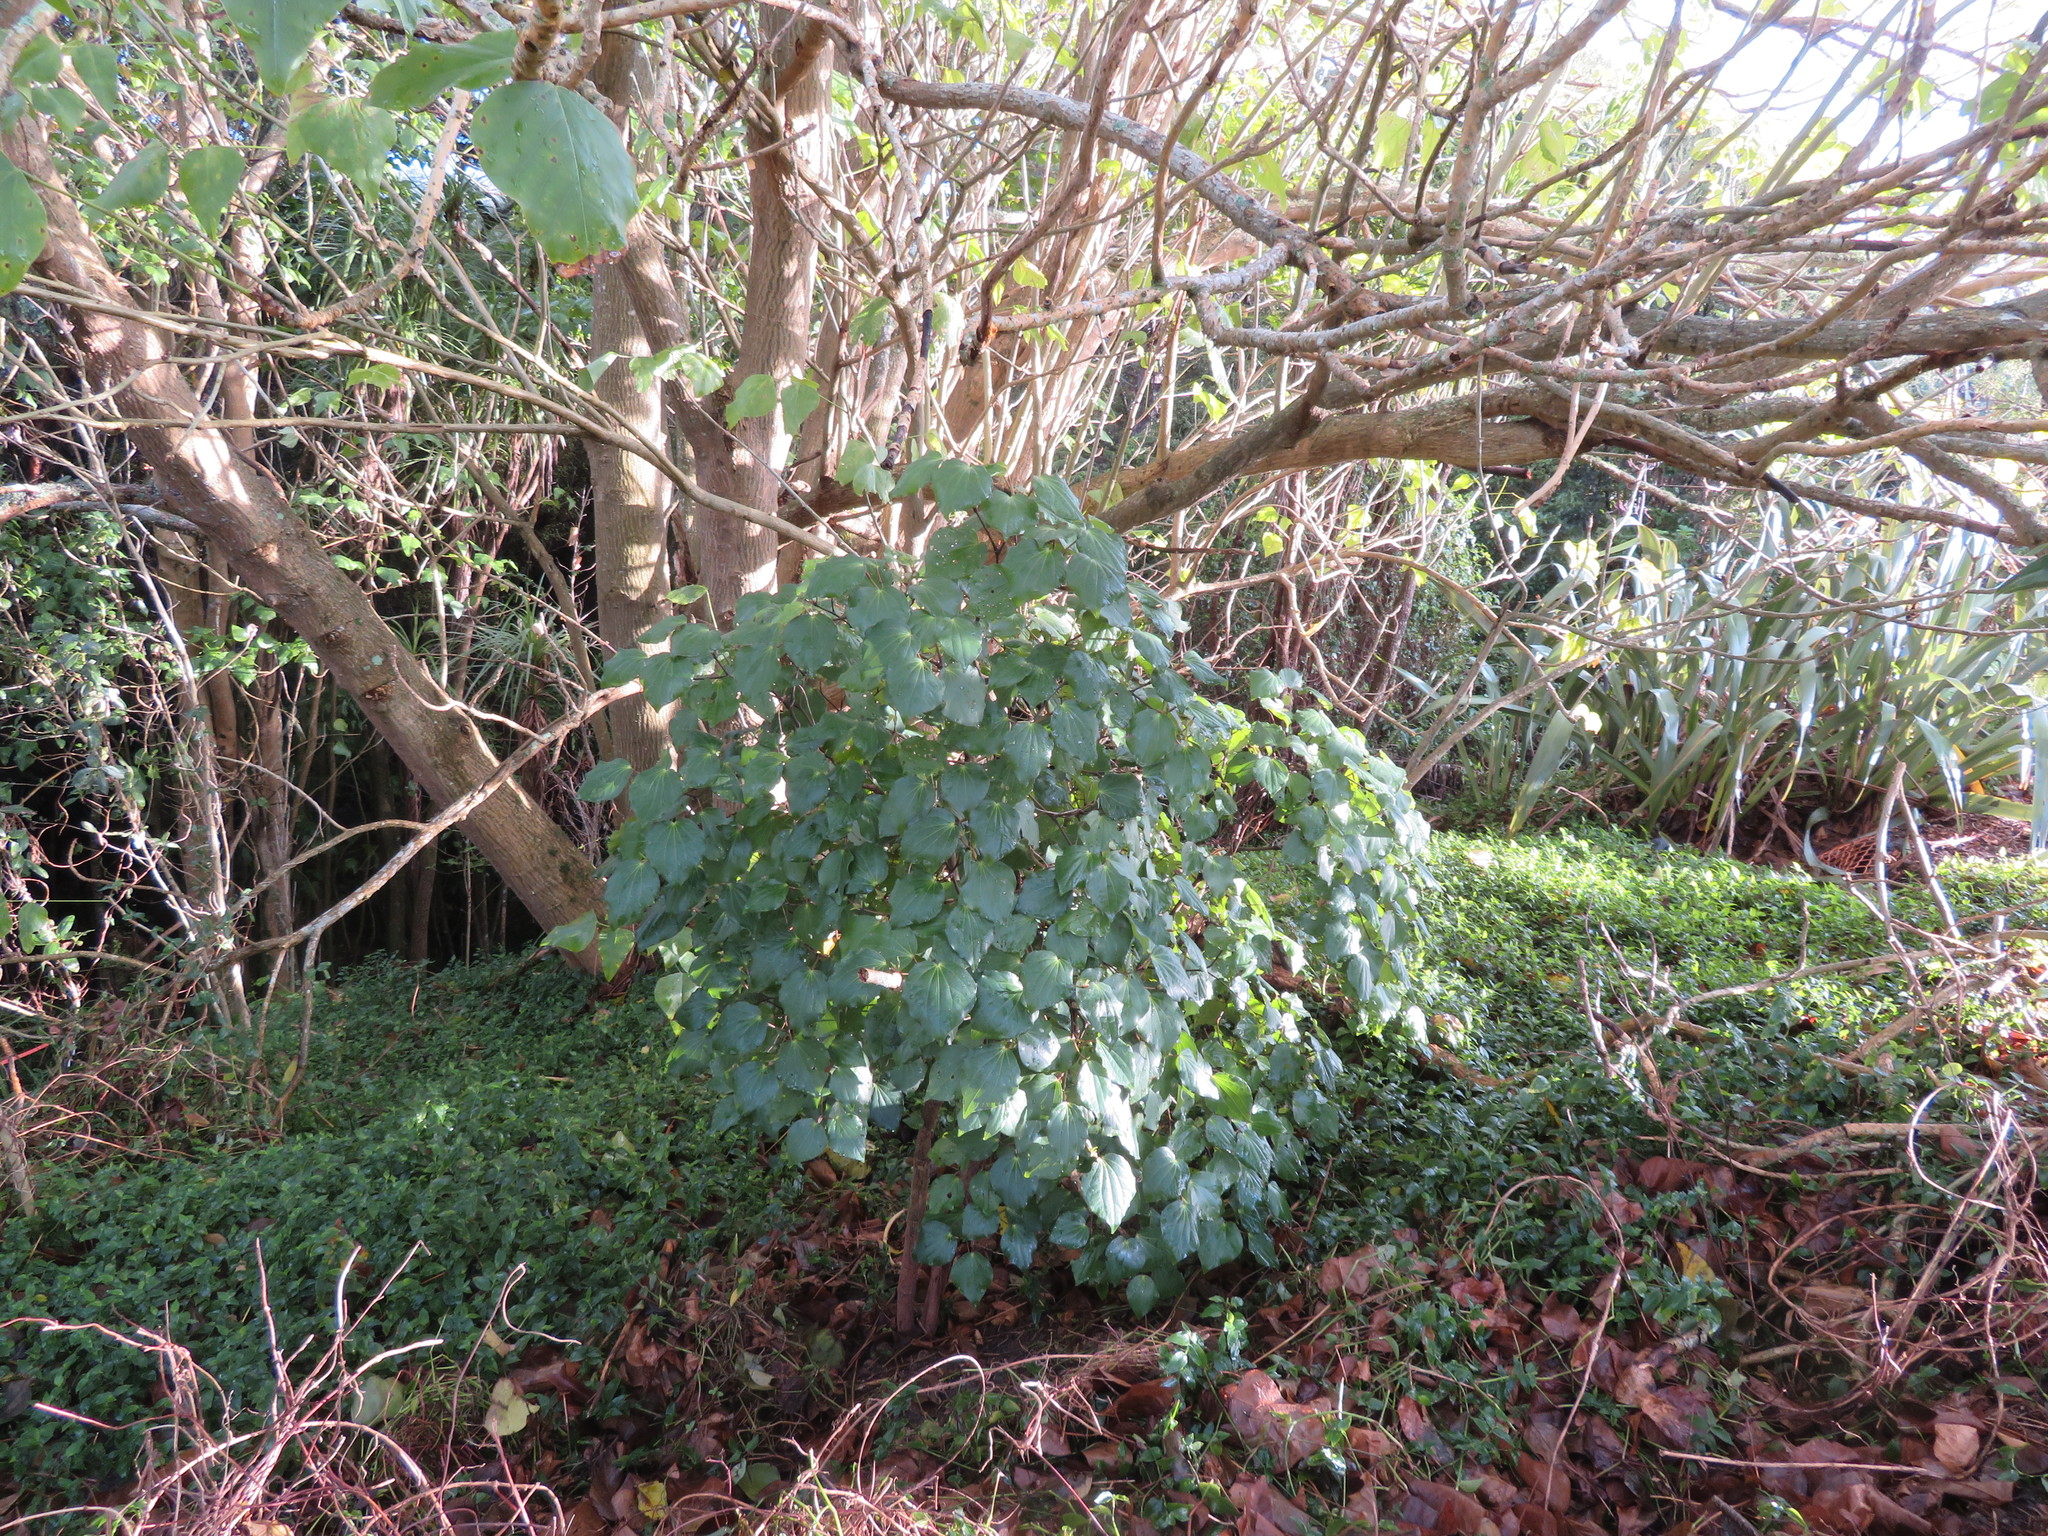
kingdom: Plantae
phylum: Tracheophyta
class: Magnoliopsida
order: Piperales
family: Piperaceae
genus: Macropiper
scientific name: Macropiper excelsum
